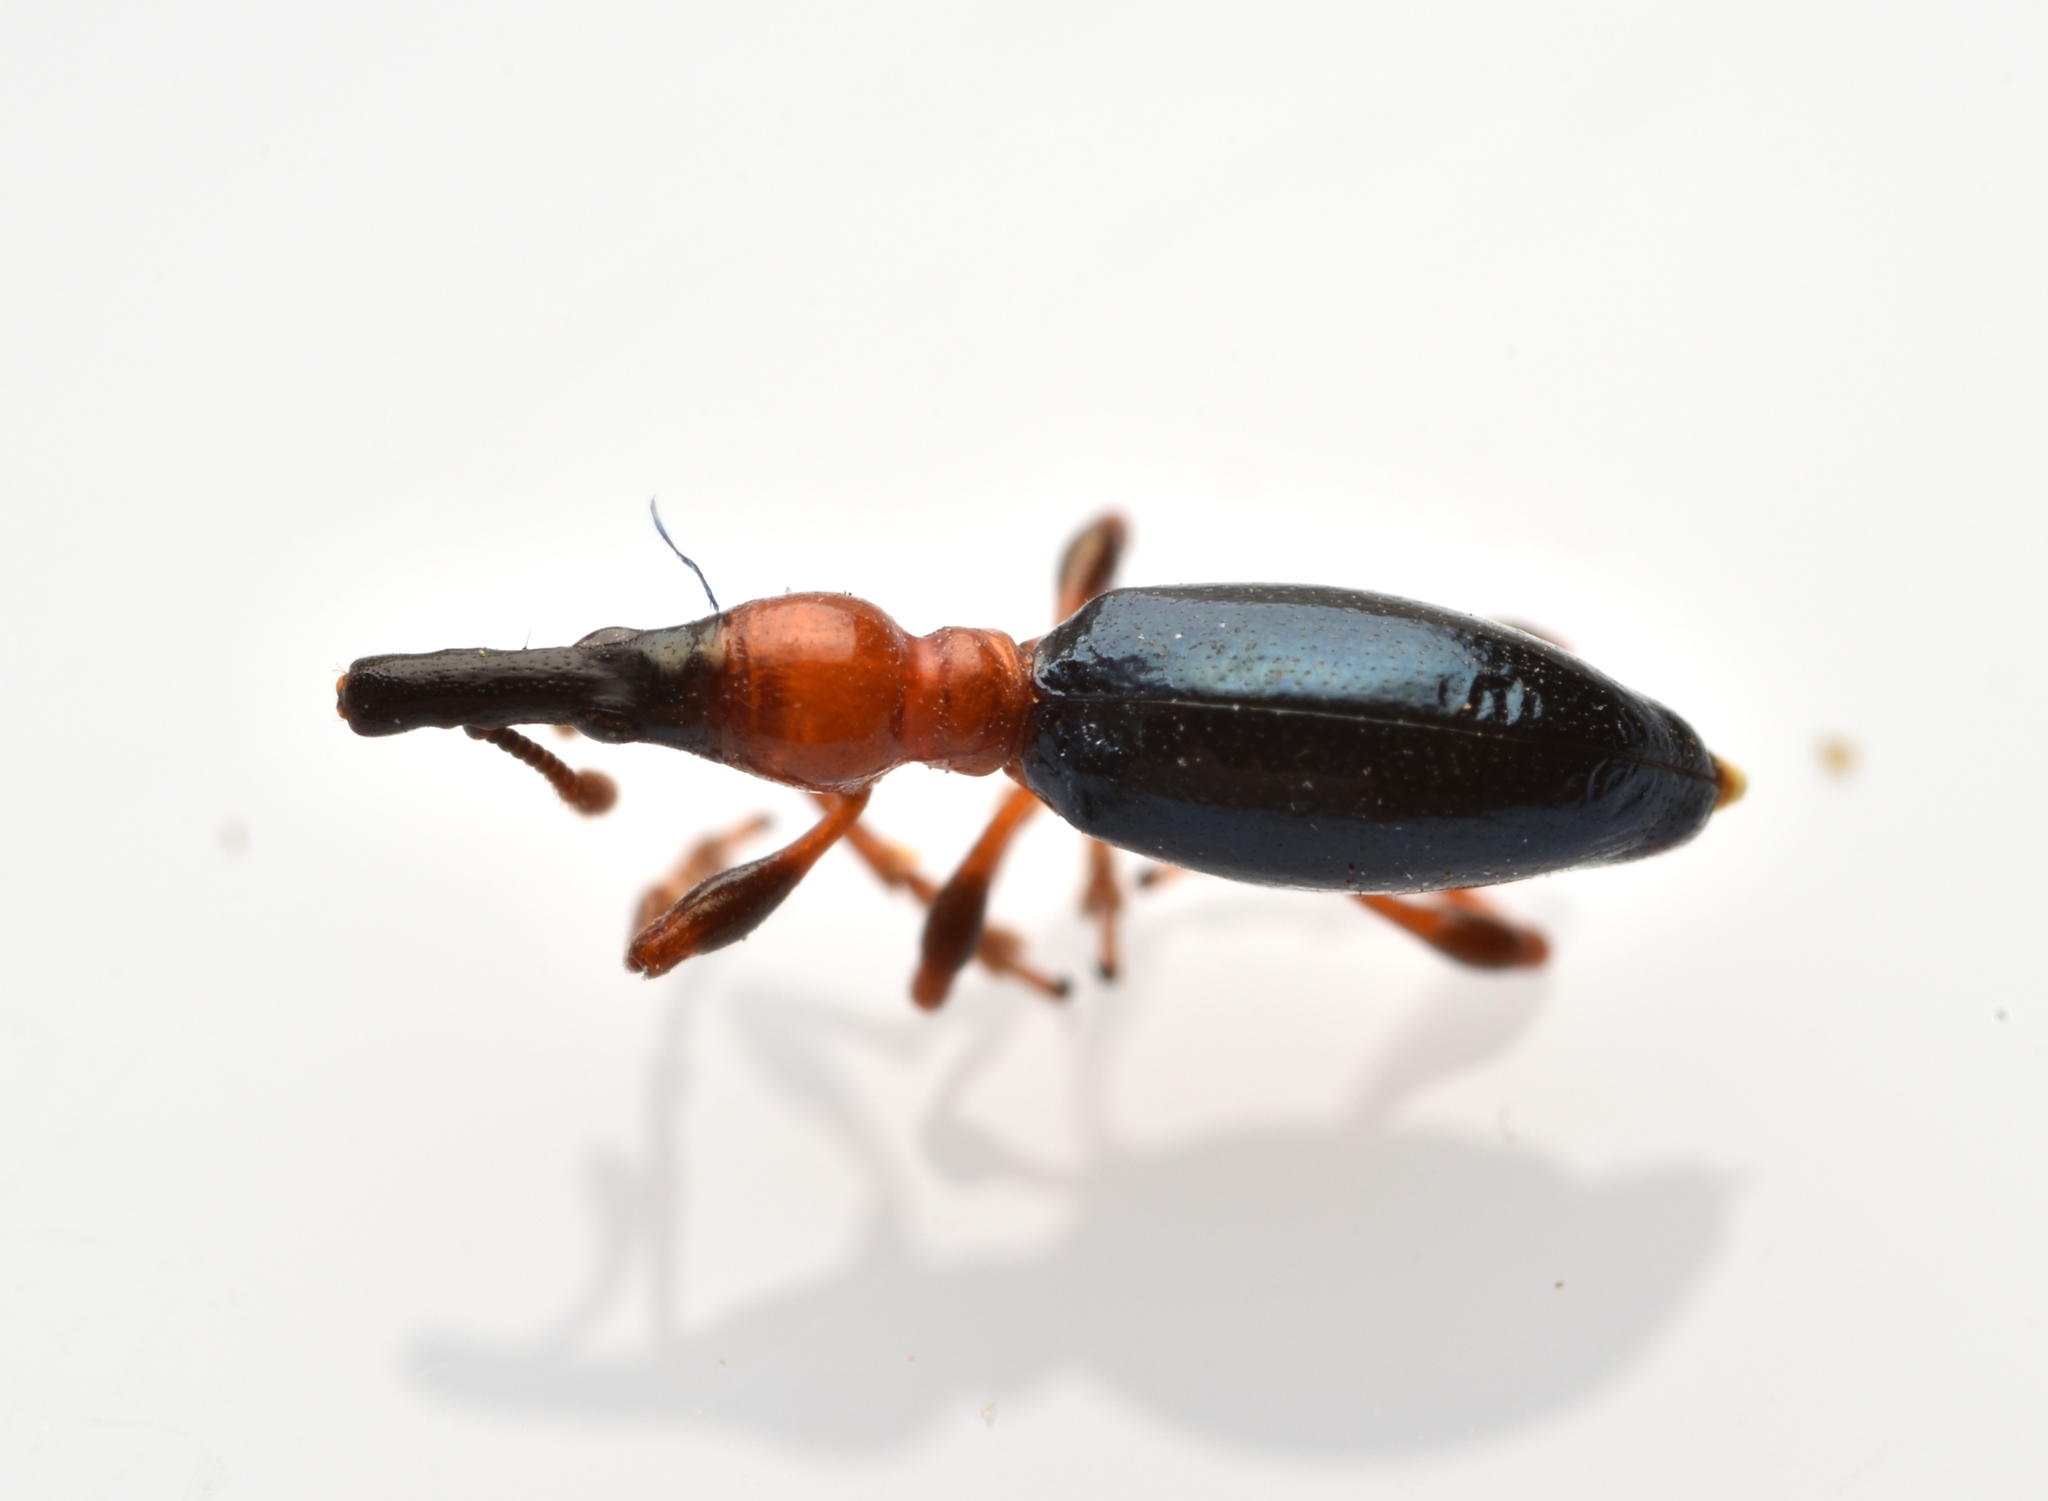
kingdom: Animalia
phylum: Arthropoda
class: Insecta
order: Coleoptera
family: Brentidae
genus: Cylas
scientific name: Cylas formicarius
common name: Sweetpotato weevil
